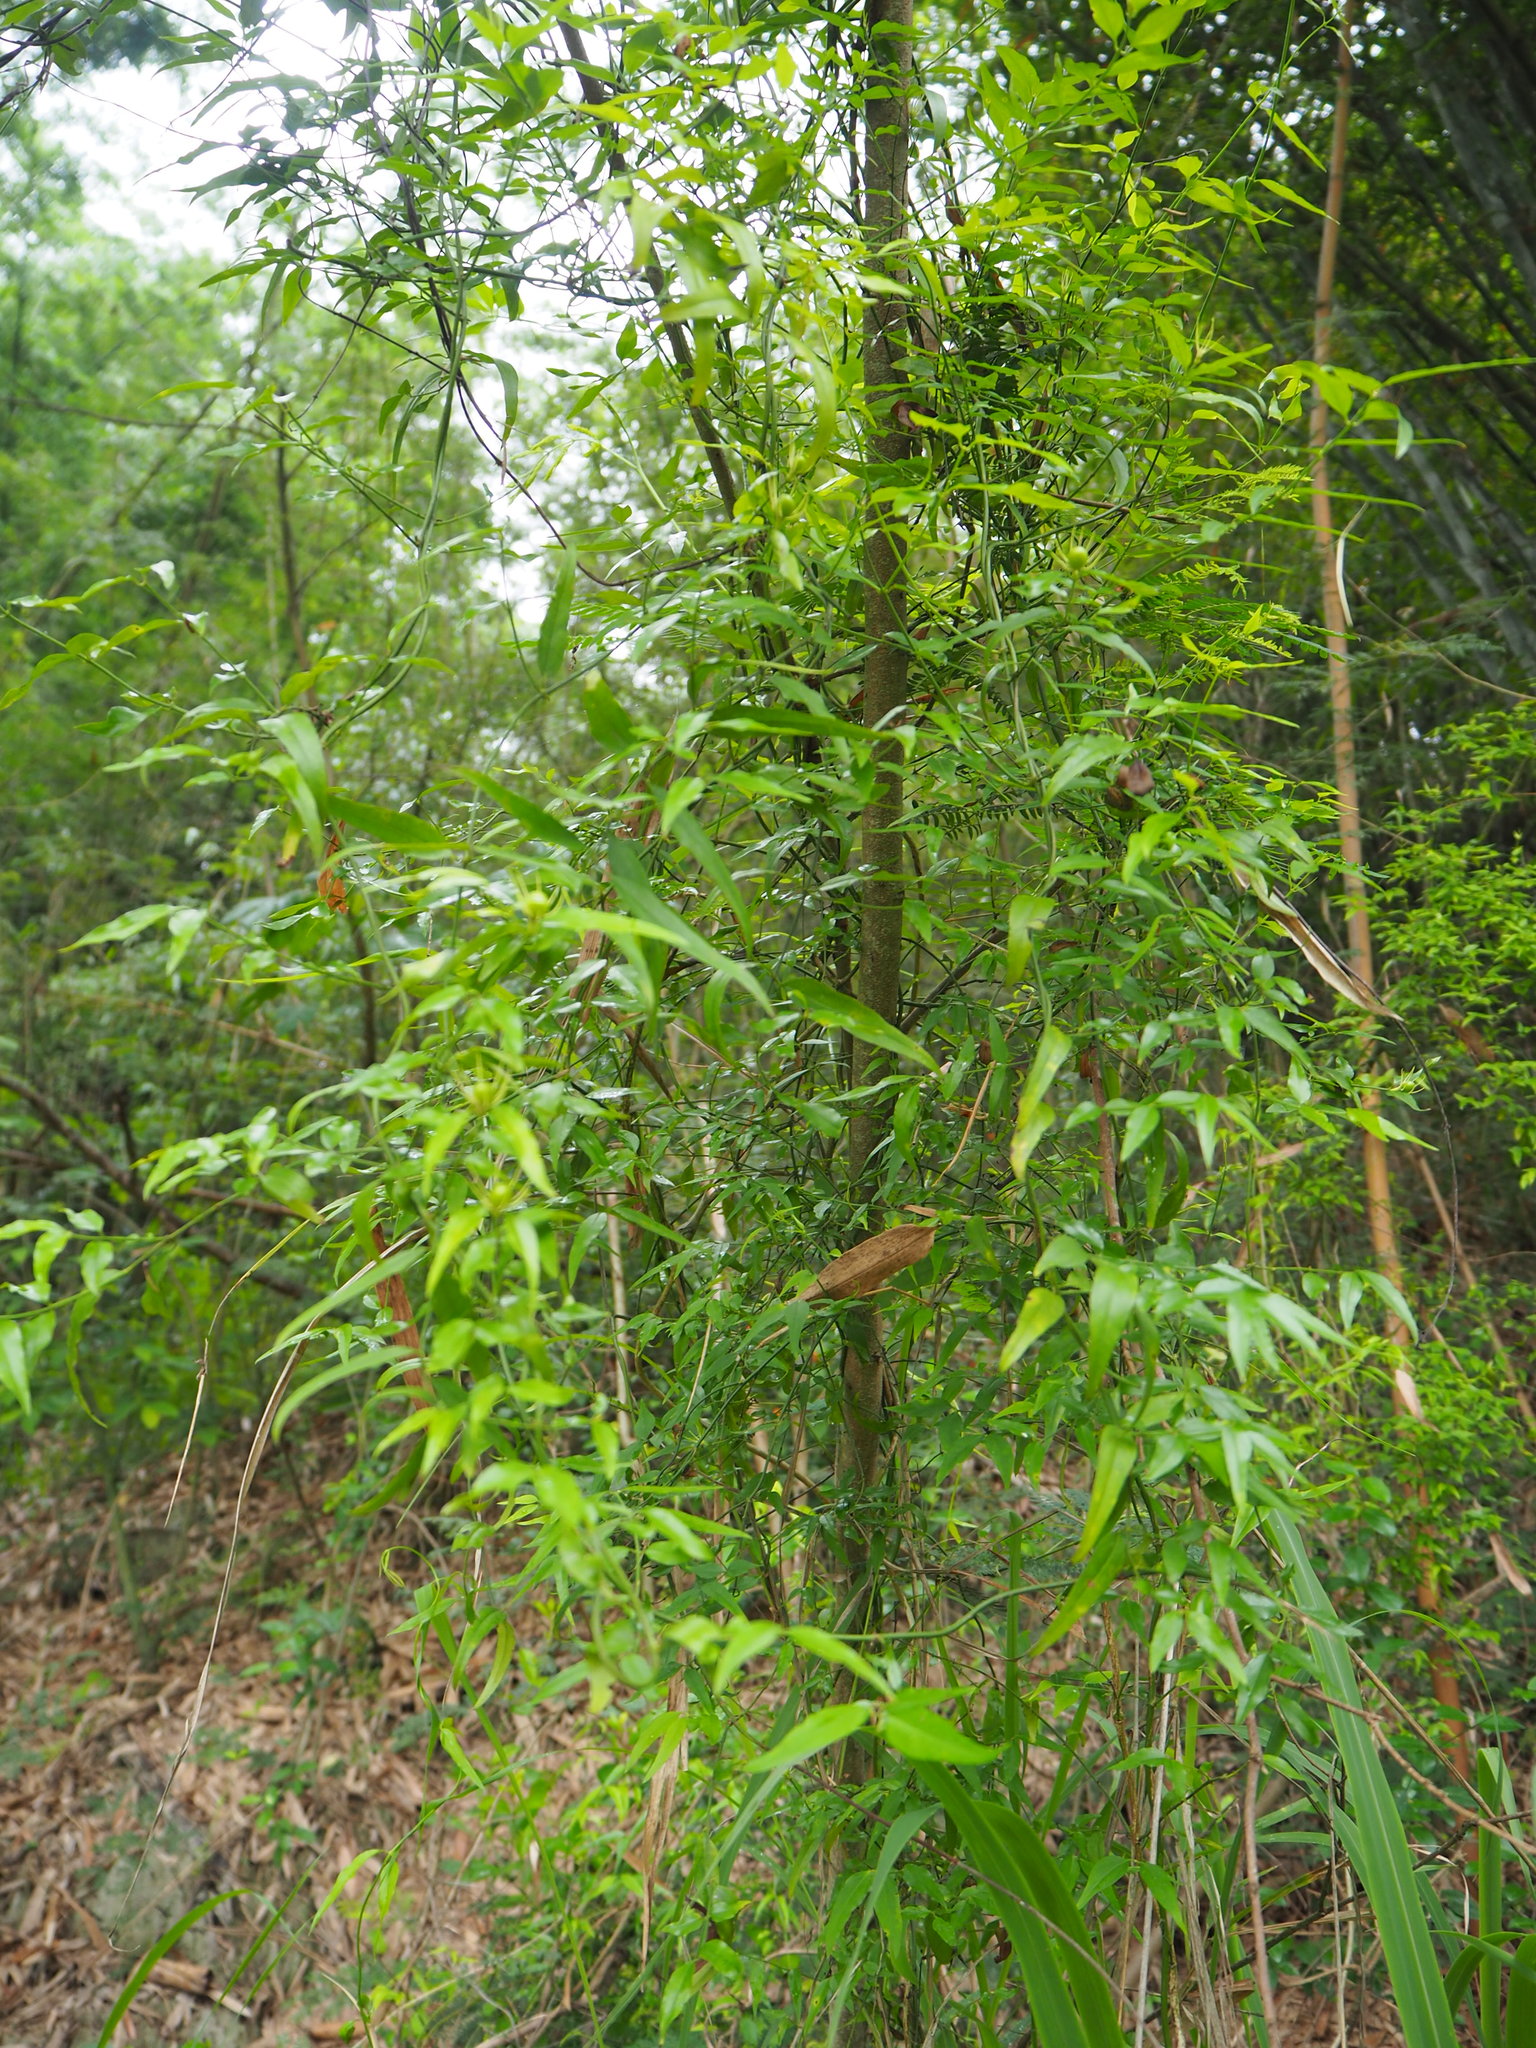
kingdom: Plantae
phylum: Tracheophyta
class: Magnoliopsida
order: Lamiales
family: Oleaceae
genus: Jasminum
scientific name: Jasminum nervosum
